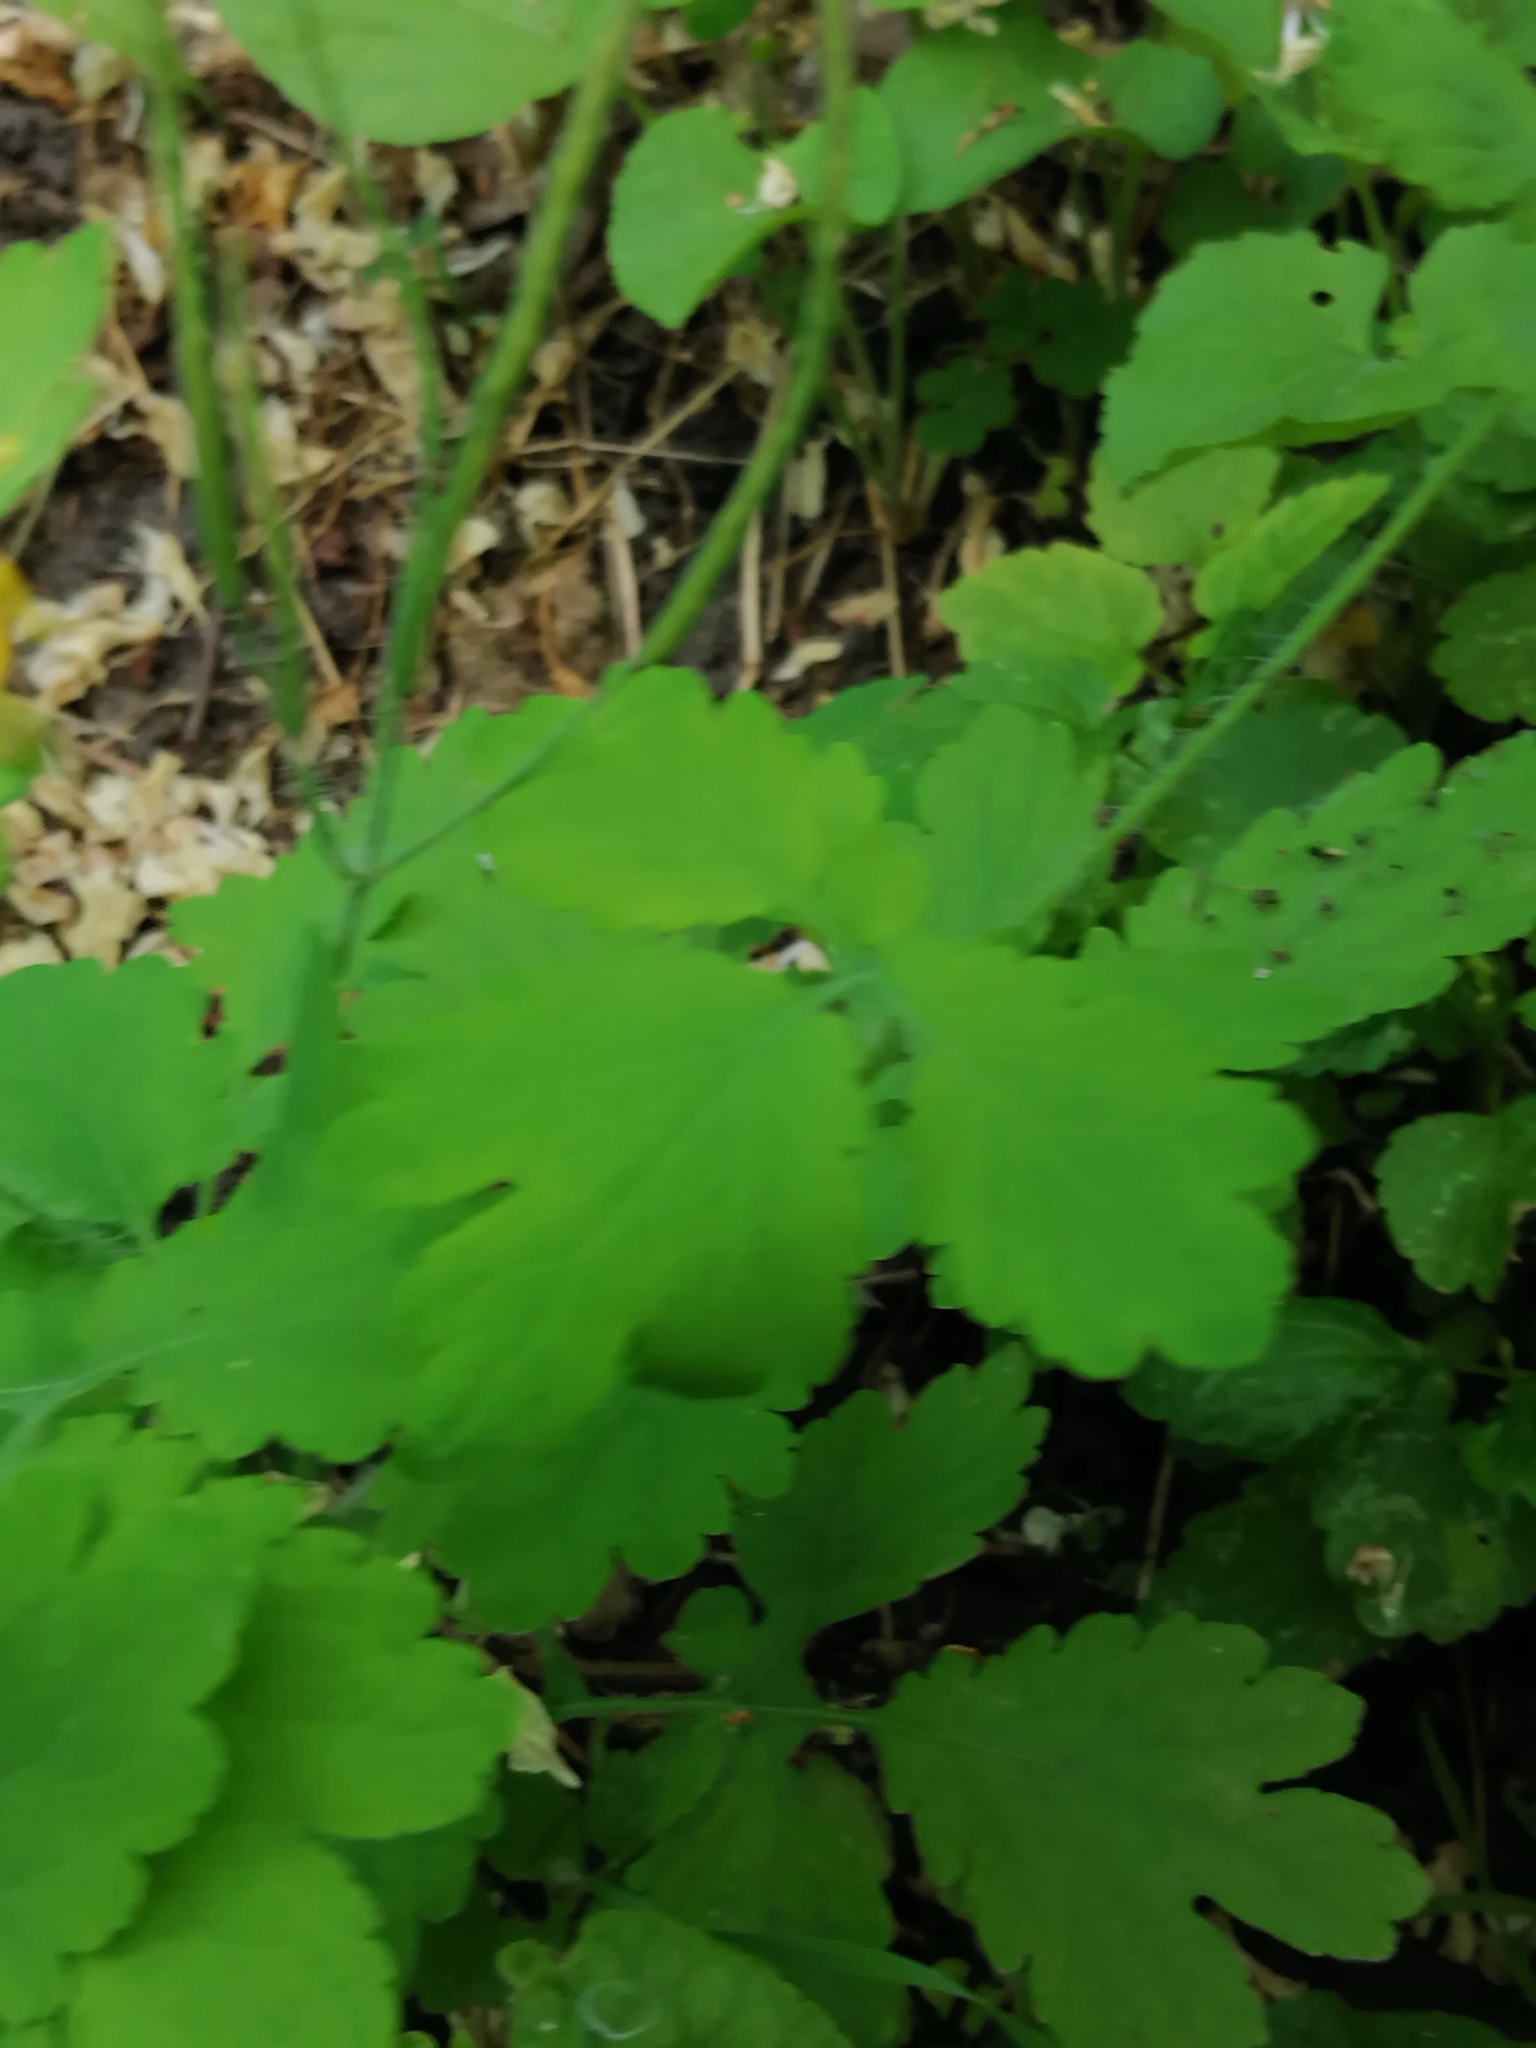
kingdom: Plantae
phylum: Tracheophyta
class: Magnoliopsida
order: Ranunculales
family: Papaveraceae
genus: Chelidonium
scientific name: Chelidonium majus
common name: Greater celandine
